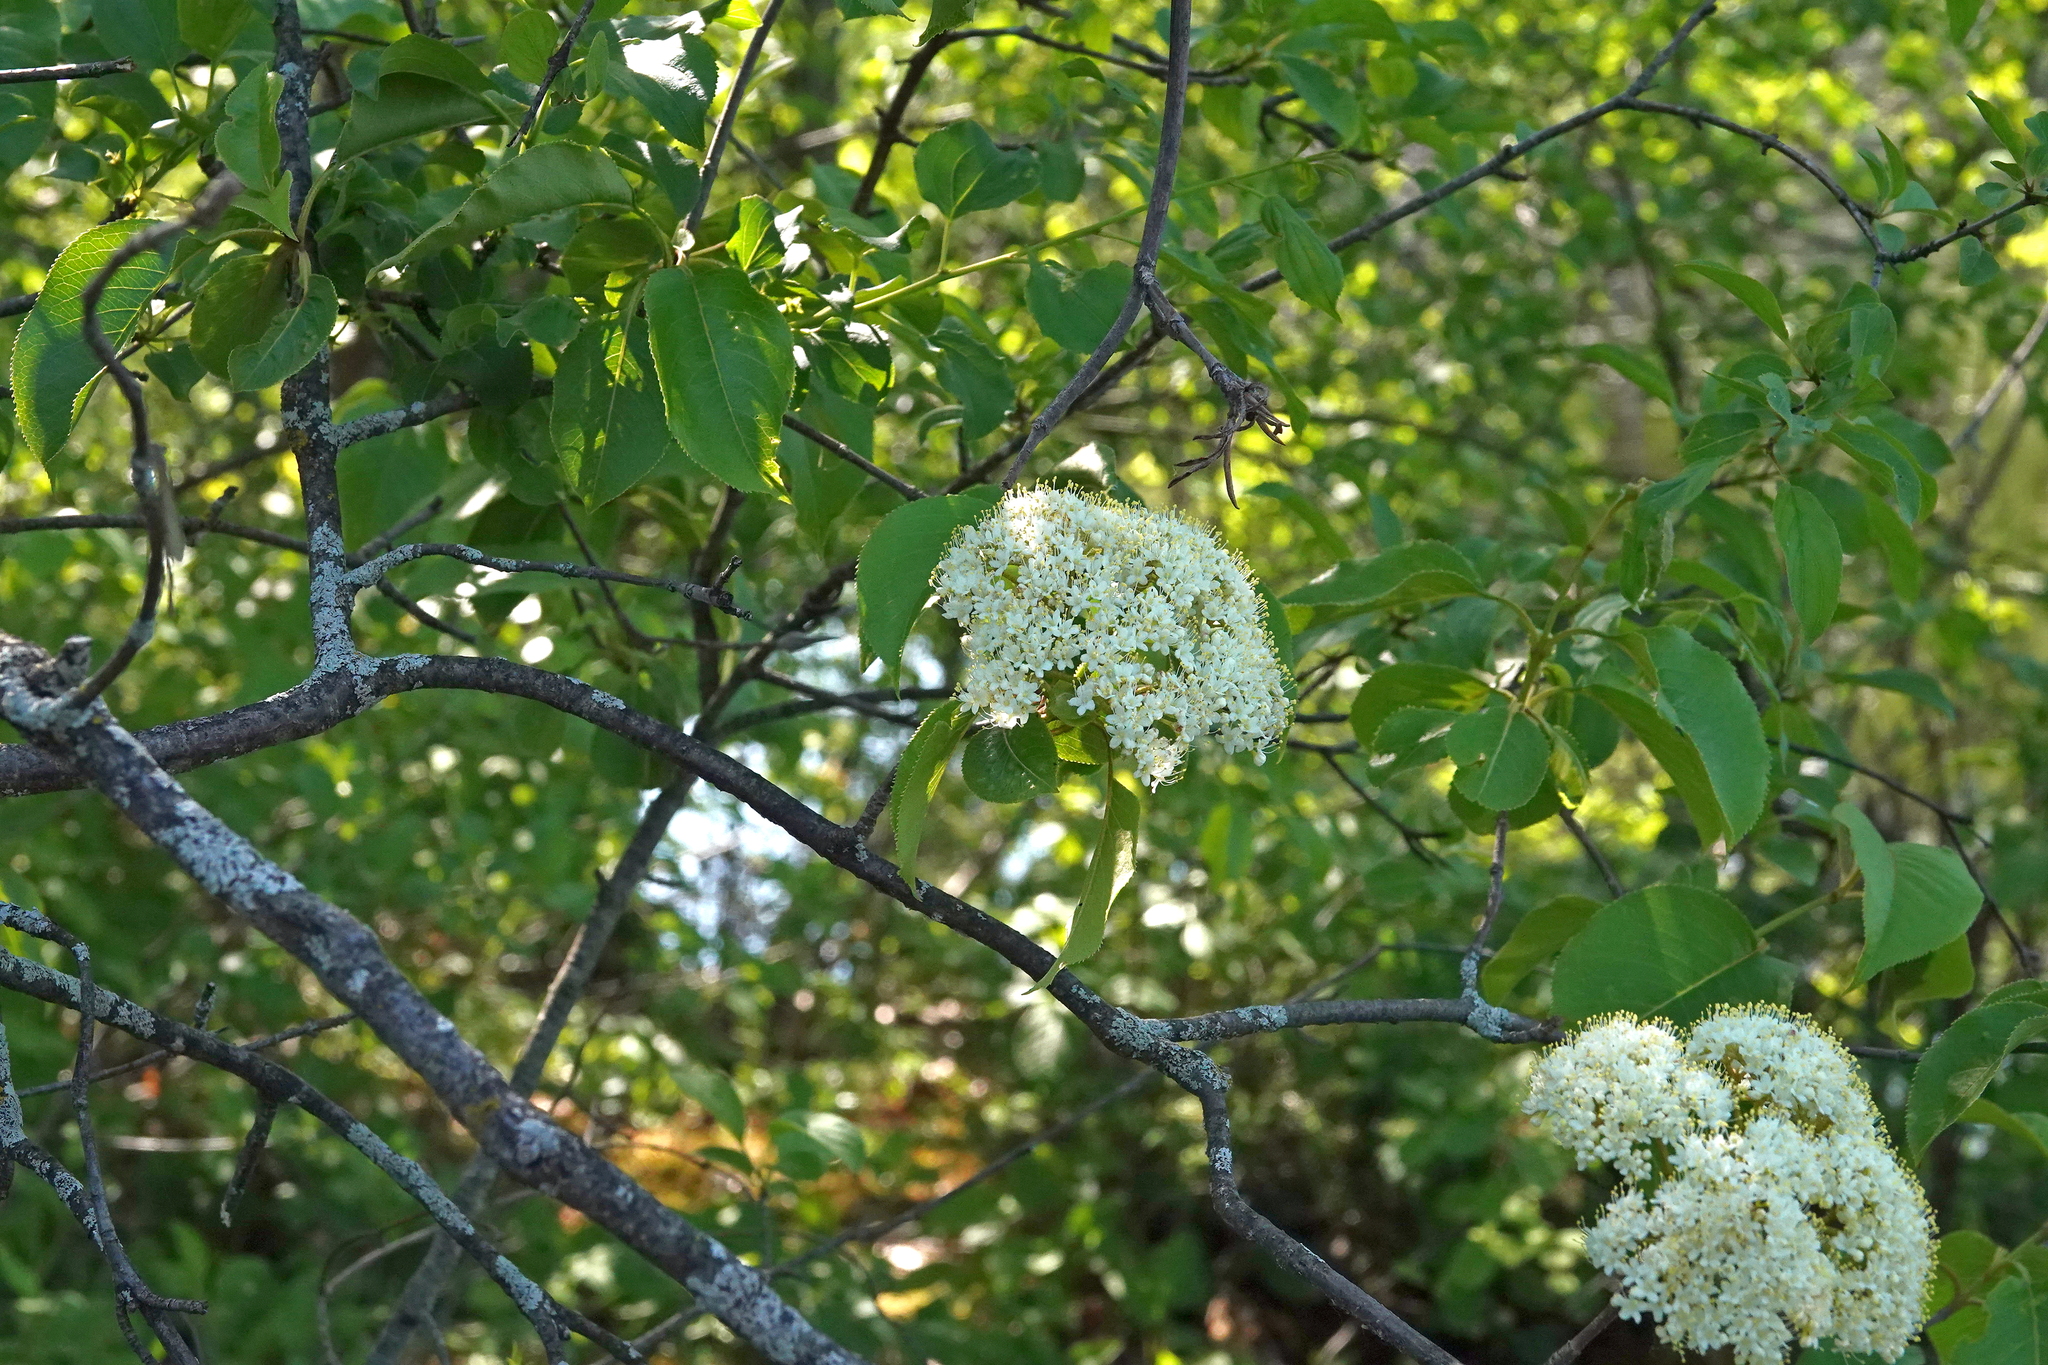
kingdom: Plantae
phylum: Tracheophyta
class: Magnoliopsida
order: Dipsacales
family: Viburnaceae
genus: Viburnum
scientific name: Viburnum lentago
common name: Black haw
